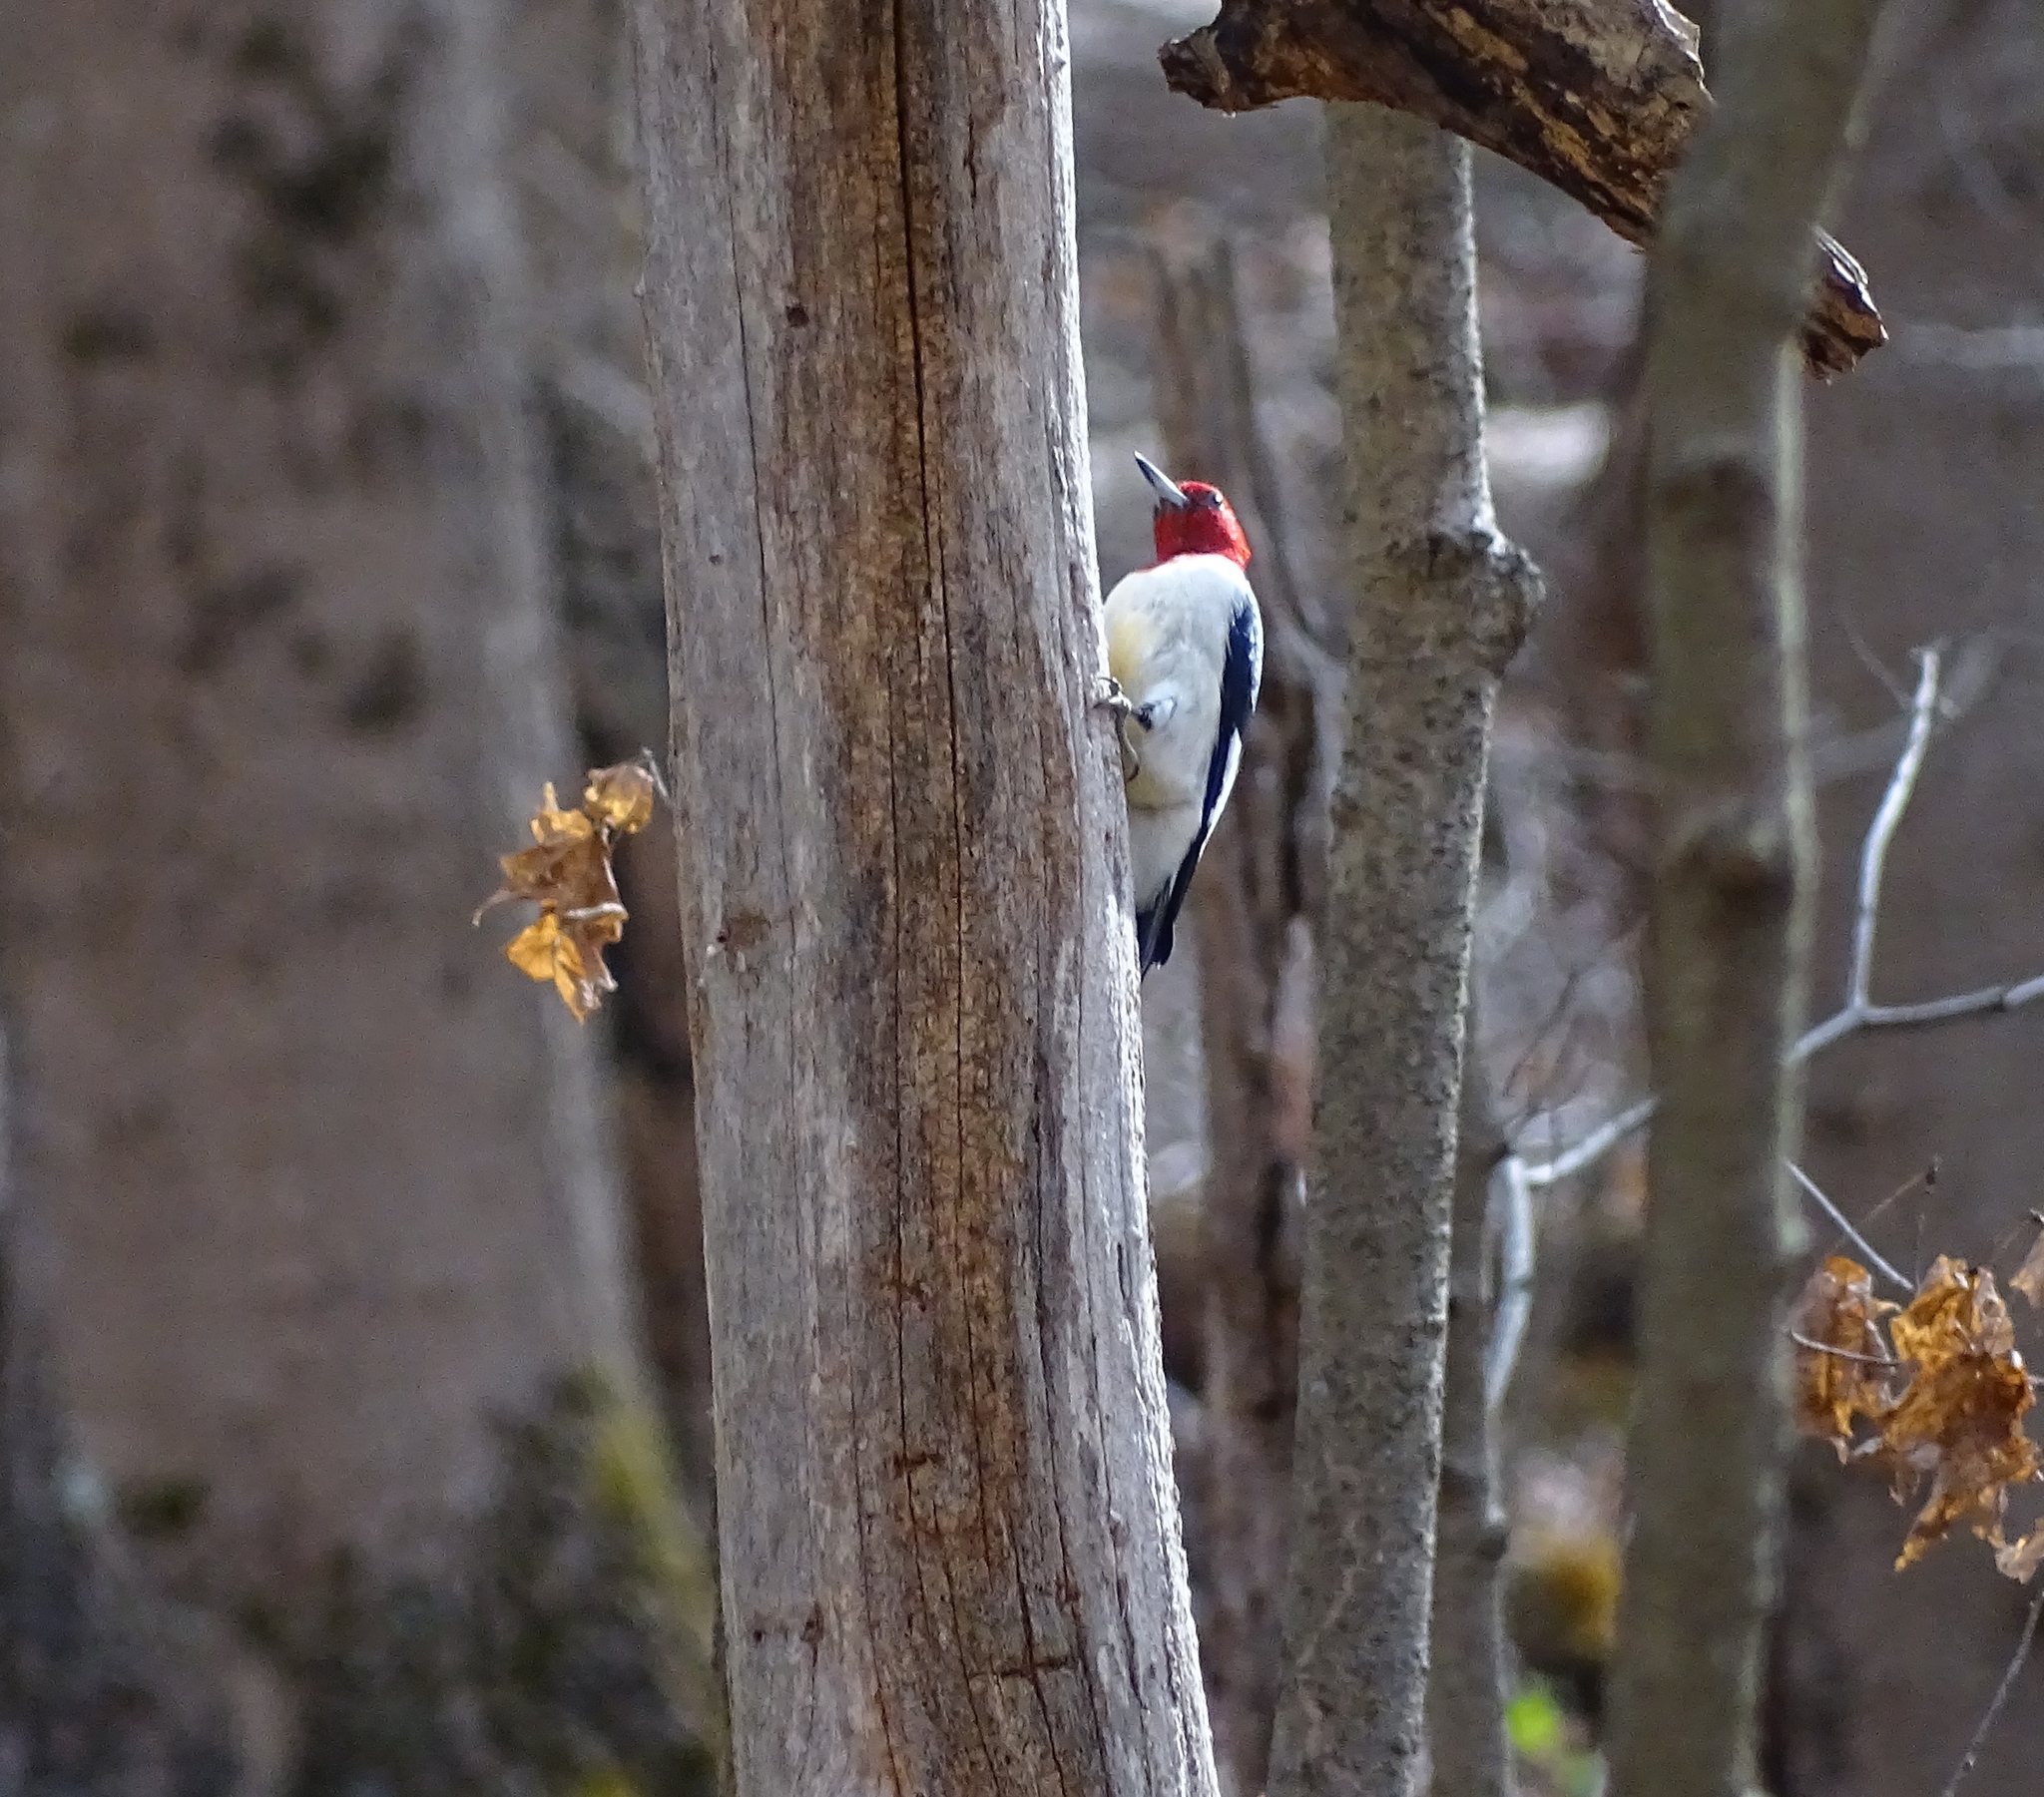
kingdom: Animalia
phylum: Chordata
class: Aves
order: Piciformes
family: Picidae
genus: Melanerpes
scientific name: Melanerpes erythrocephalus
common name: Red-headed woodpecker
